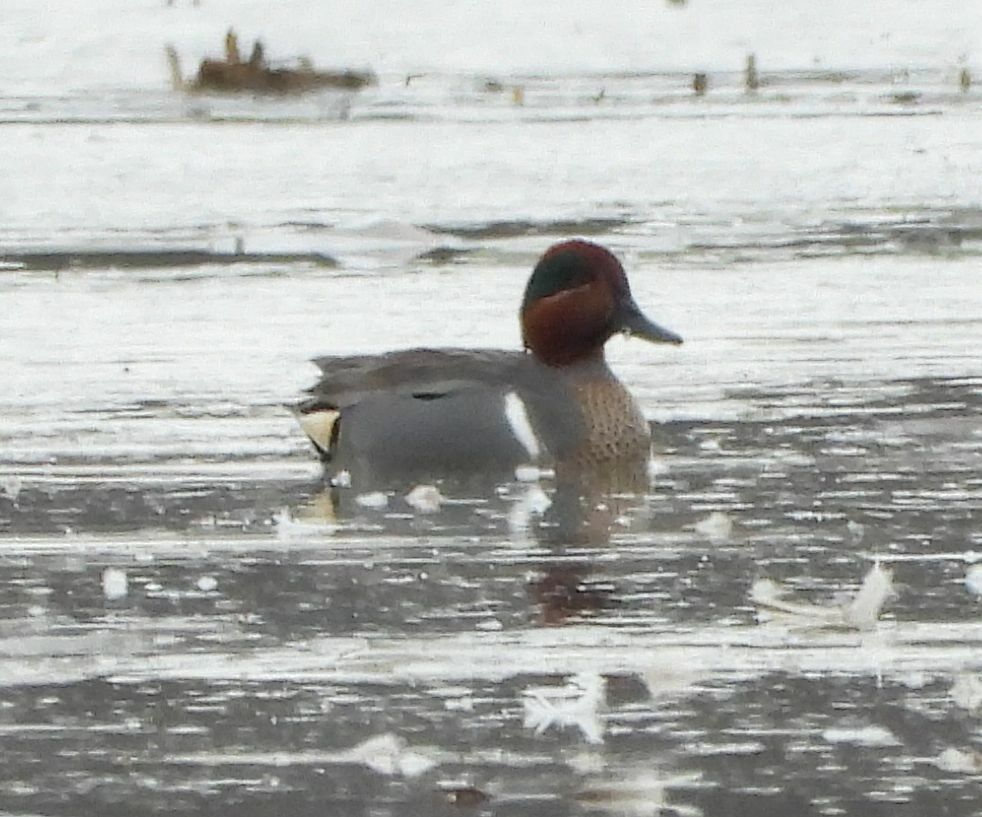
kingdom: Animalia
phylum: Chordata
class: Aves
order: Anseriformes
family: Anatidae
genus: Anas
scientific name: Anas crecca
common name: Eurasian teal
